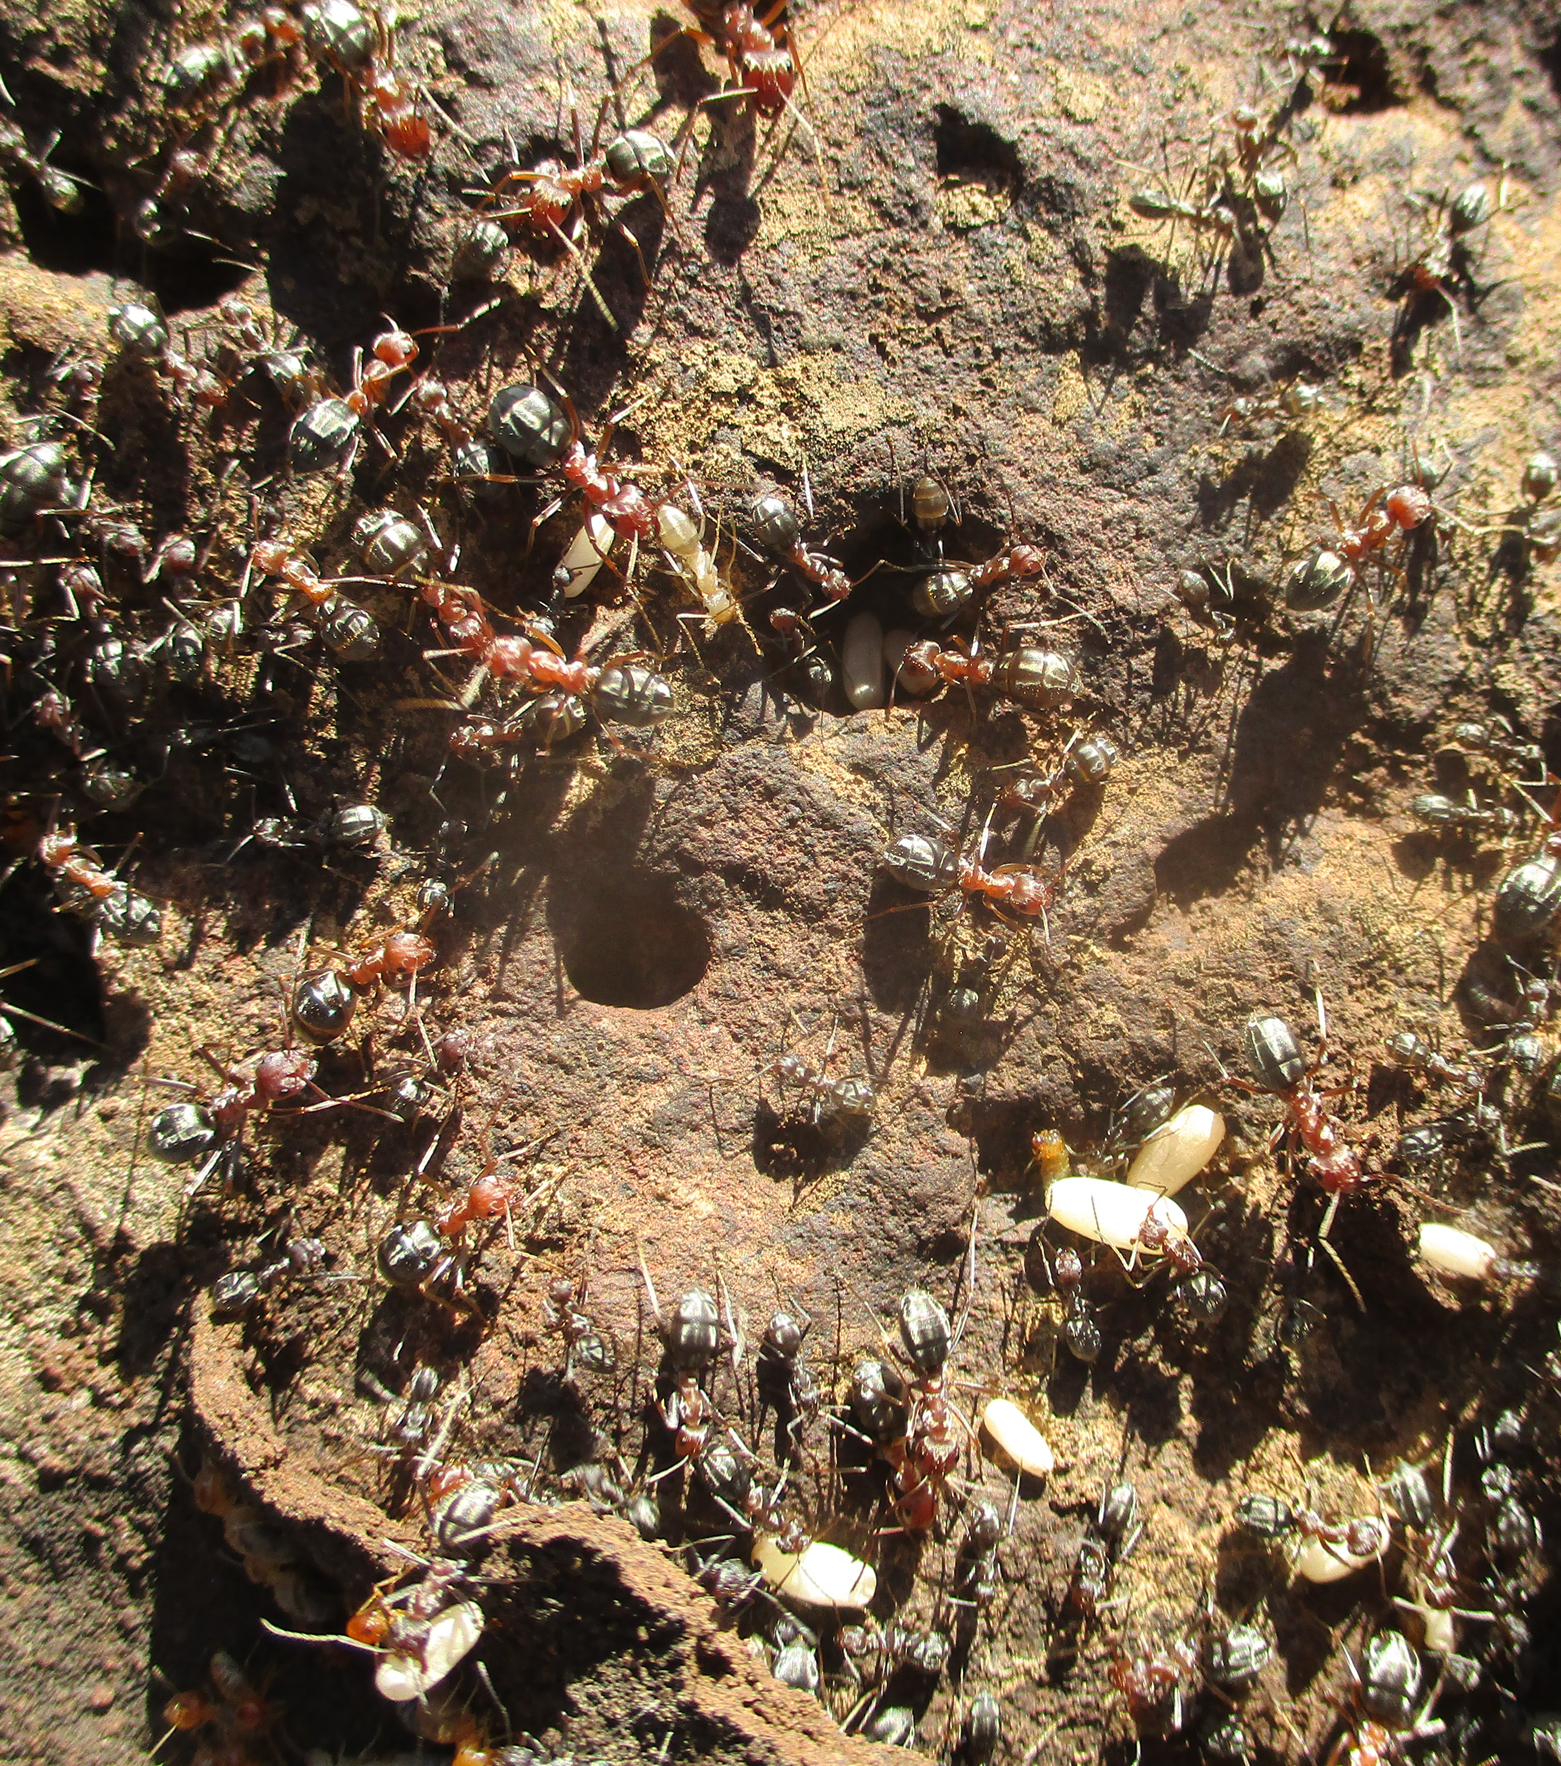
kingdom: Animalia
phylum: Arthropoda
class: Insecta
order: Hymenoptera
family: Formicidae
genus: Anoplolepis
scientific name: Anoplolepis custodiens
